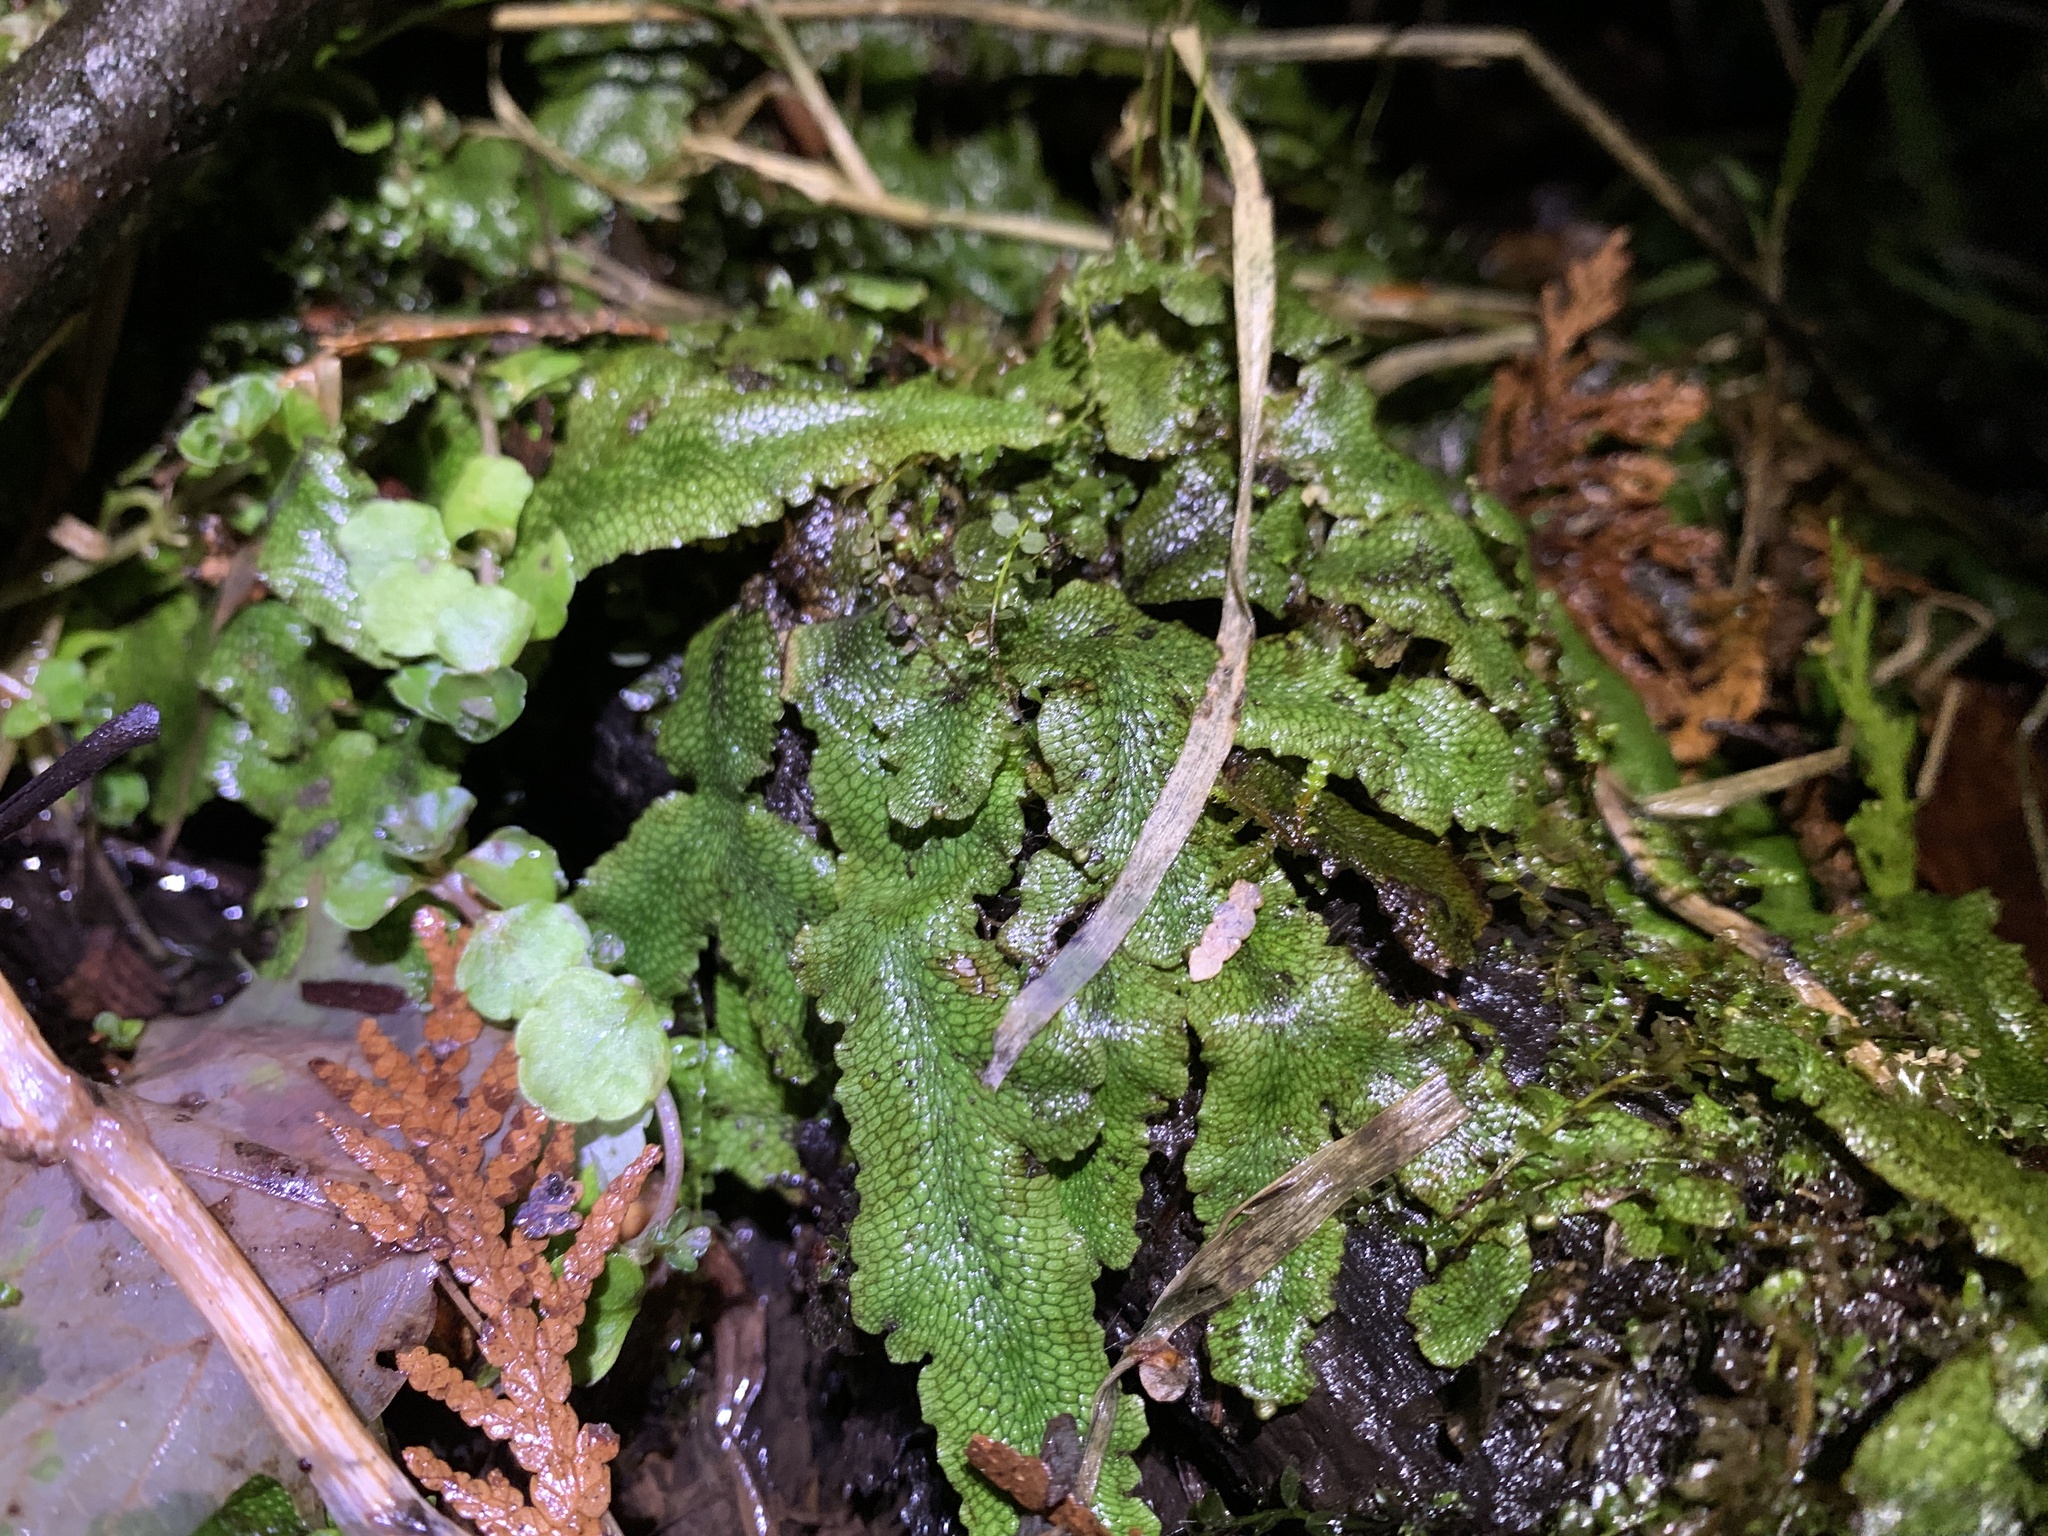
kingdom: Plantae
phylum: Marchantiophyta
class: Marchantiopsida
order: Marchantiales
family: Conocephalaceae
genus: Conocephalum
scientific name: Conocephalum salebrosum
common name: Cat-tongue liverwort
